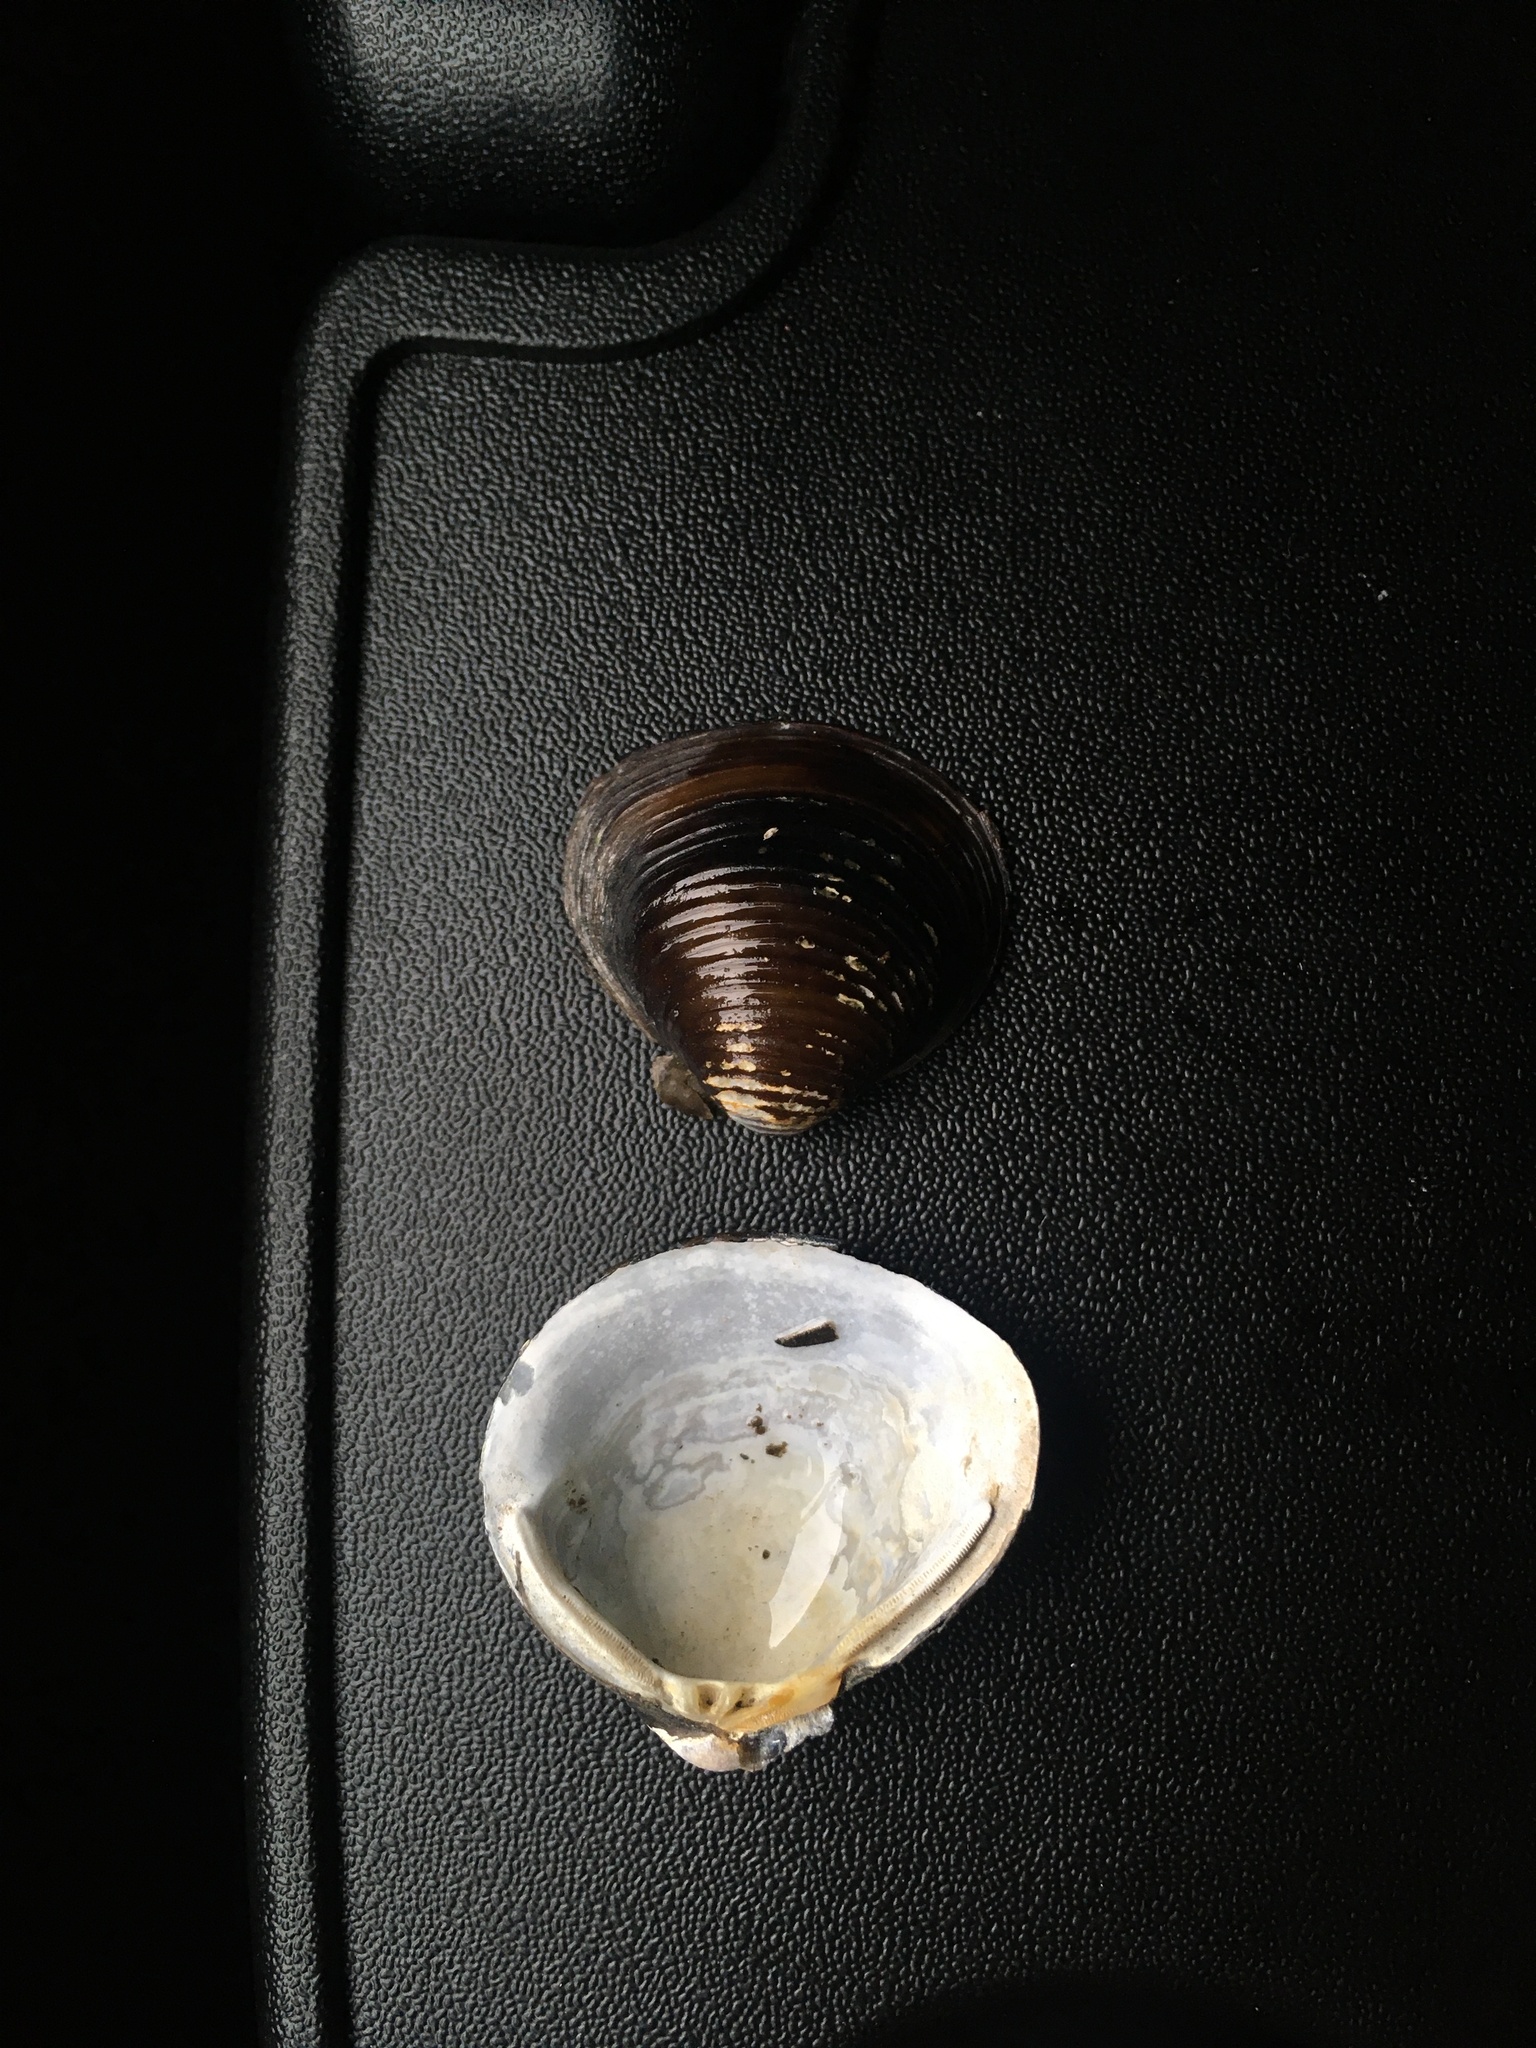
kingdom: Animalia
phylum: Mollusca
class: Bivalvia
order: Venerida
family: Cyrenidae
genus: Corbicula
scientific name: Corbicula fluminea
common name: Asian clam
